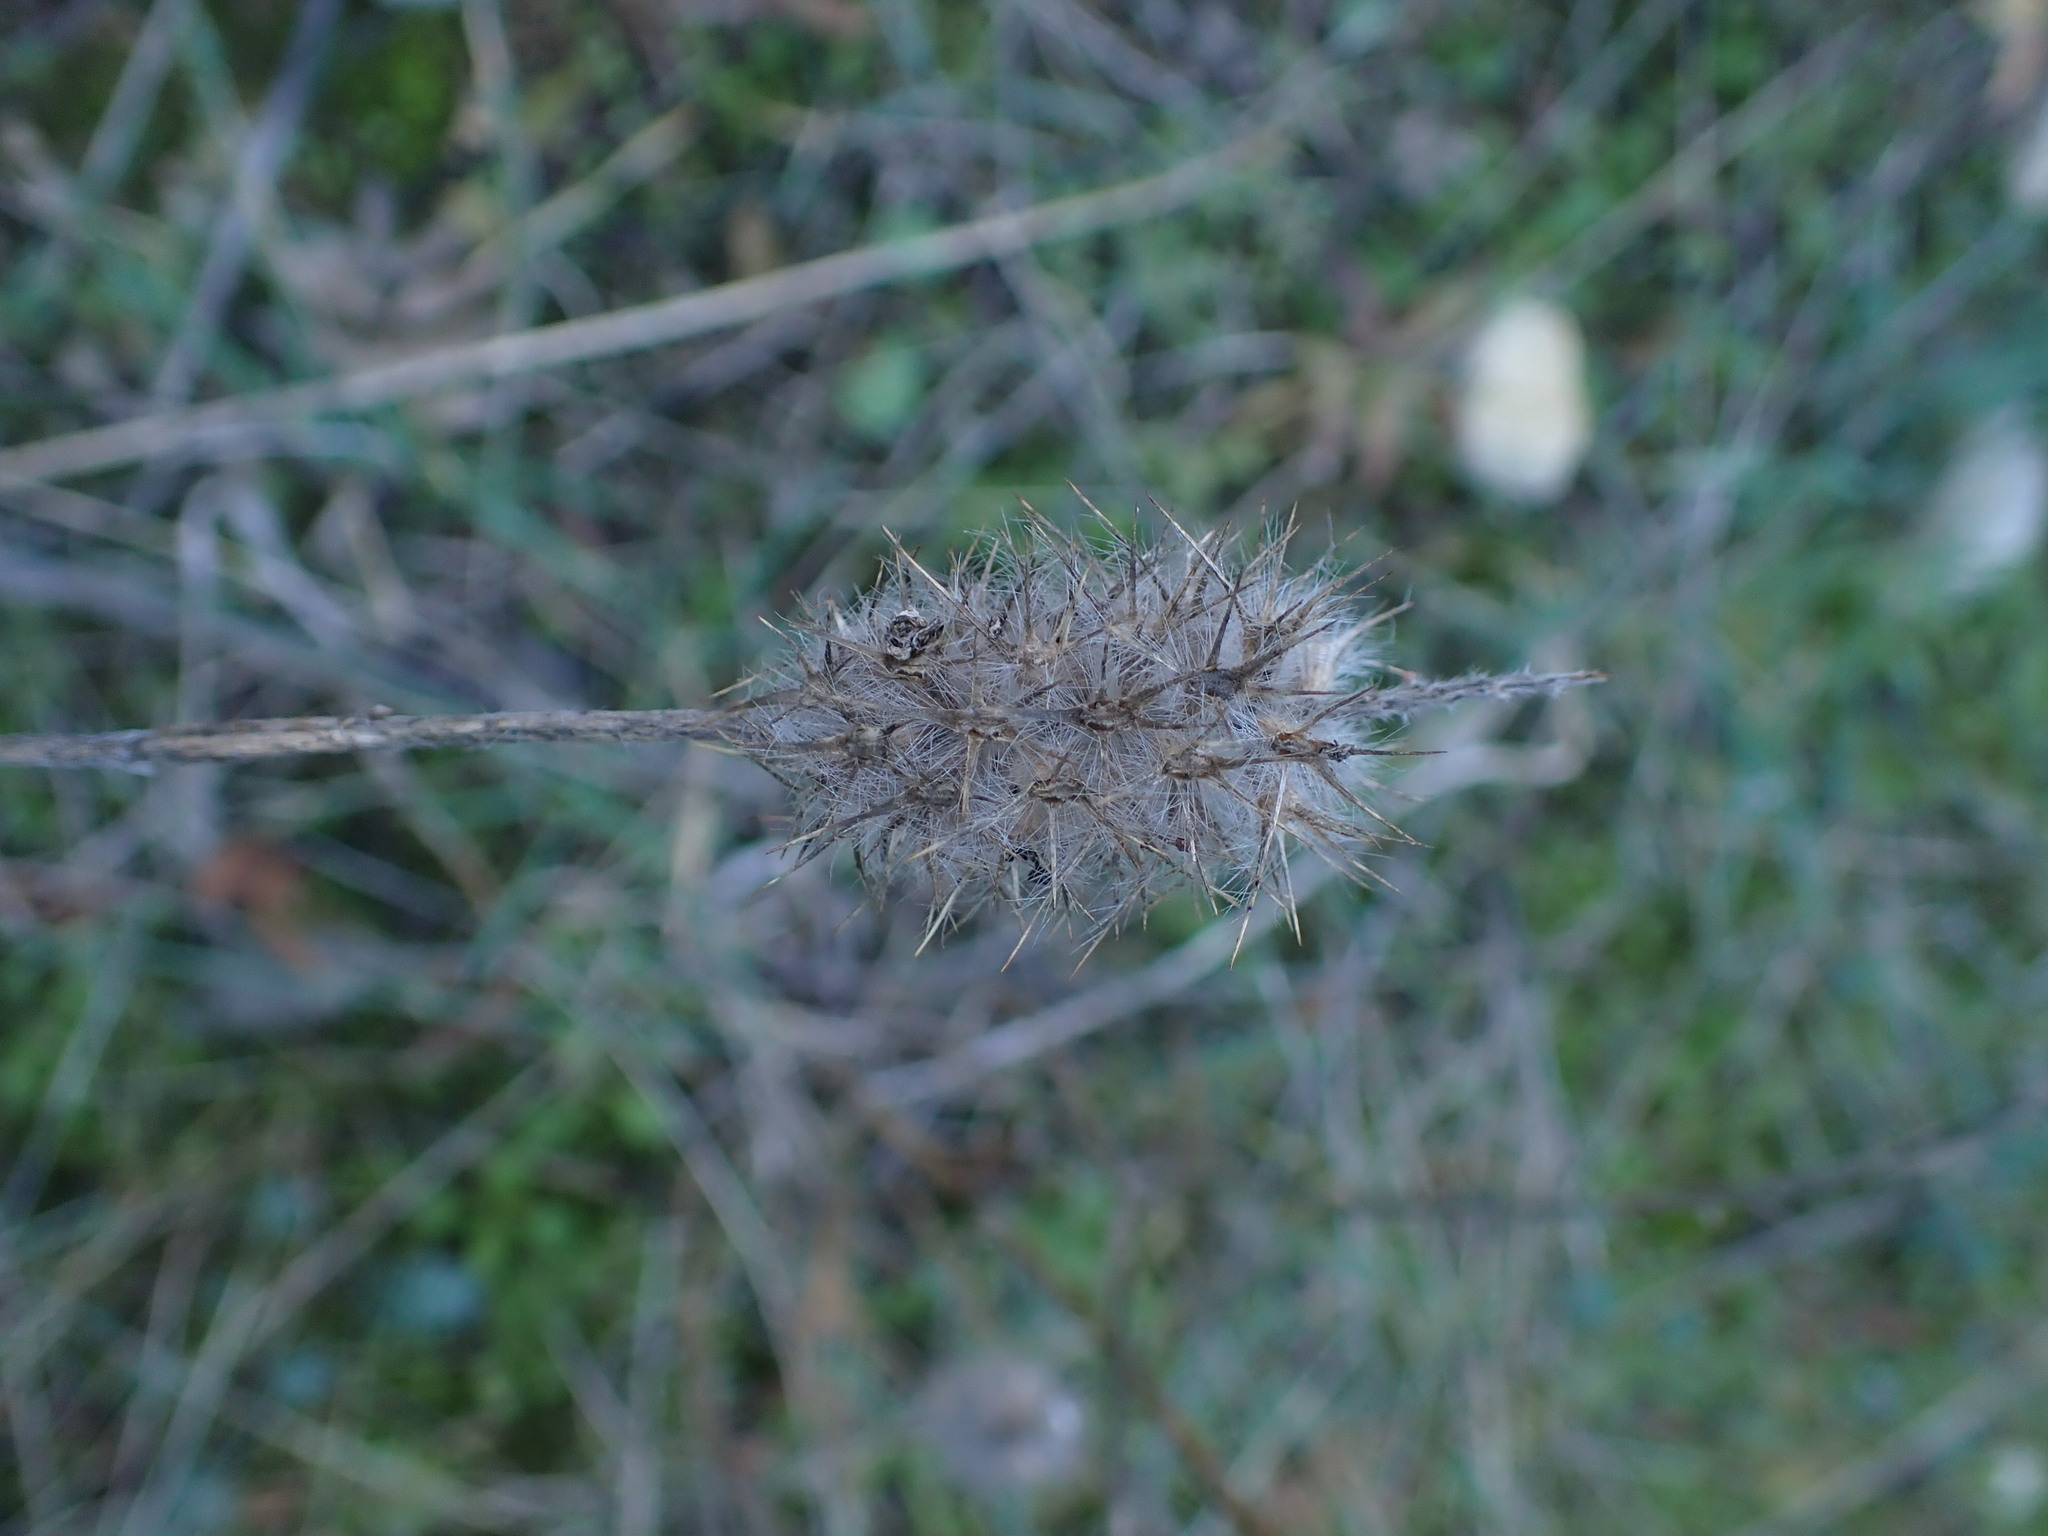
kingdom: Plantae
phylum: Tracheophyta
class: Magnoliopsida
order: Fabales
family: Fabaceae
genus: Trifolium
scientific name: Trifolium angustifolium
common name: Narrow clover
